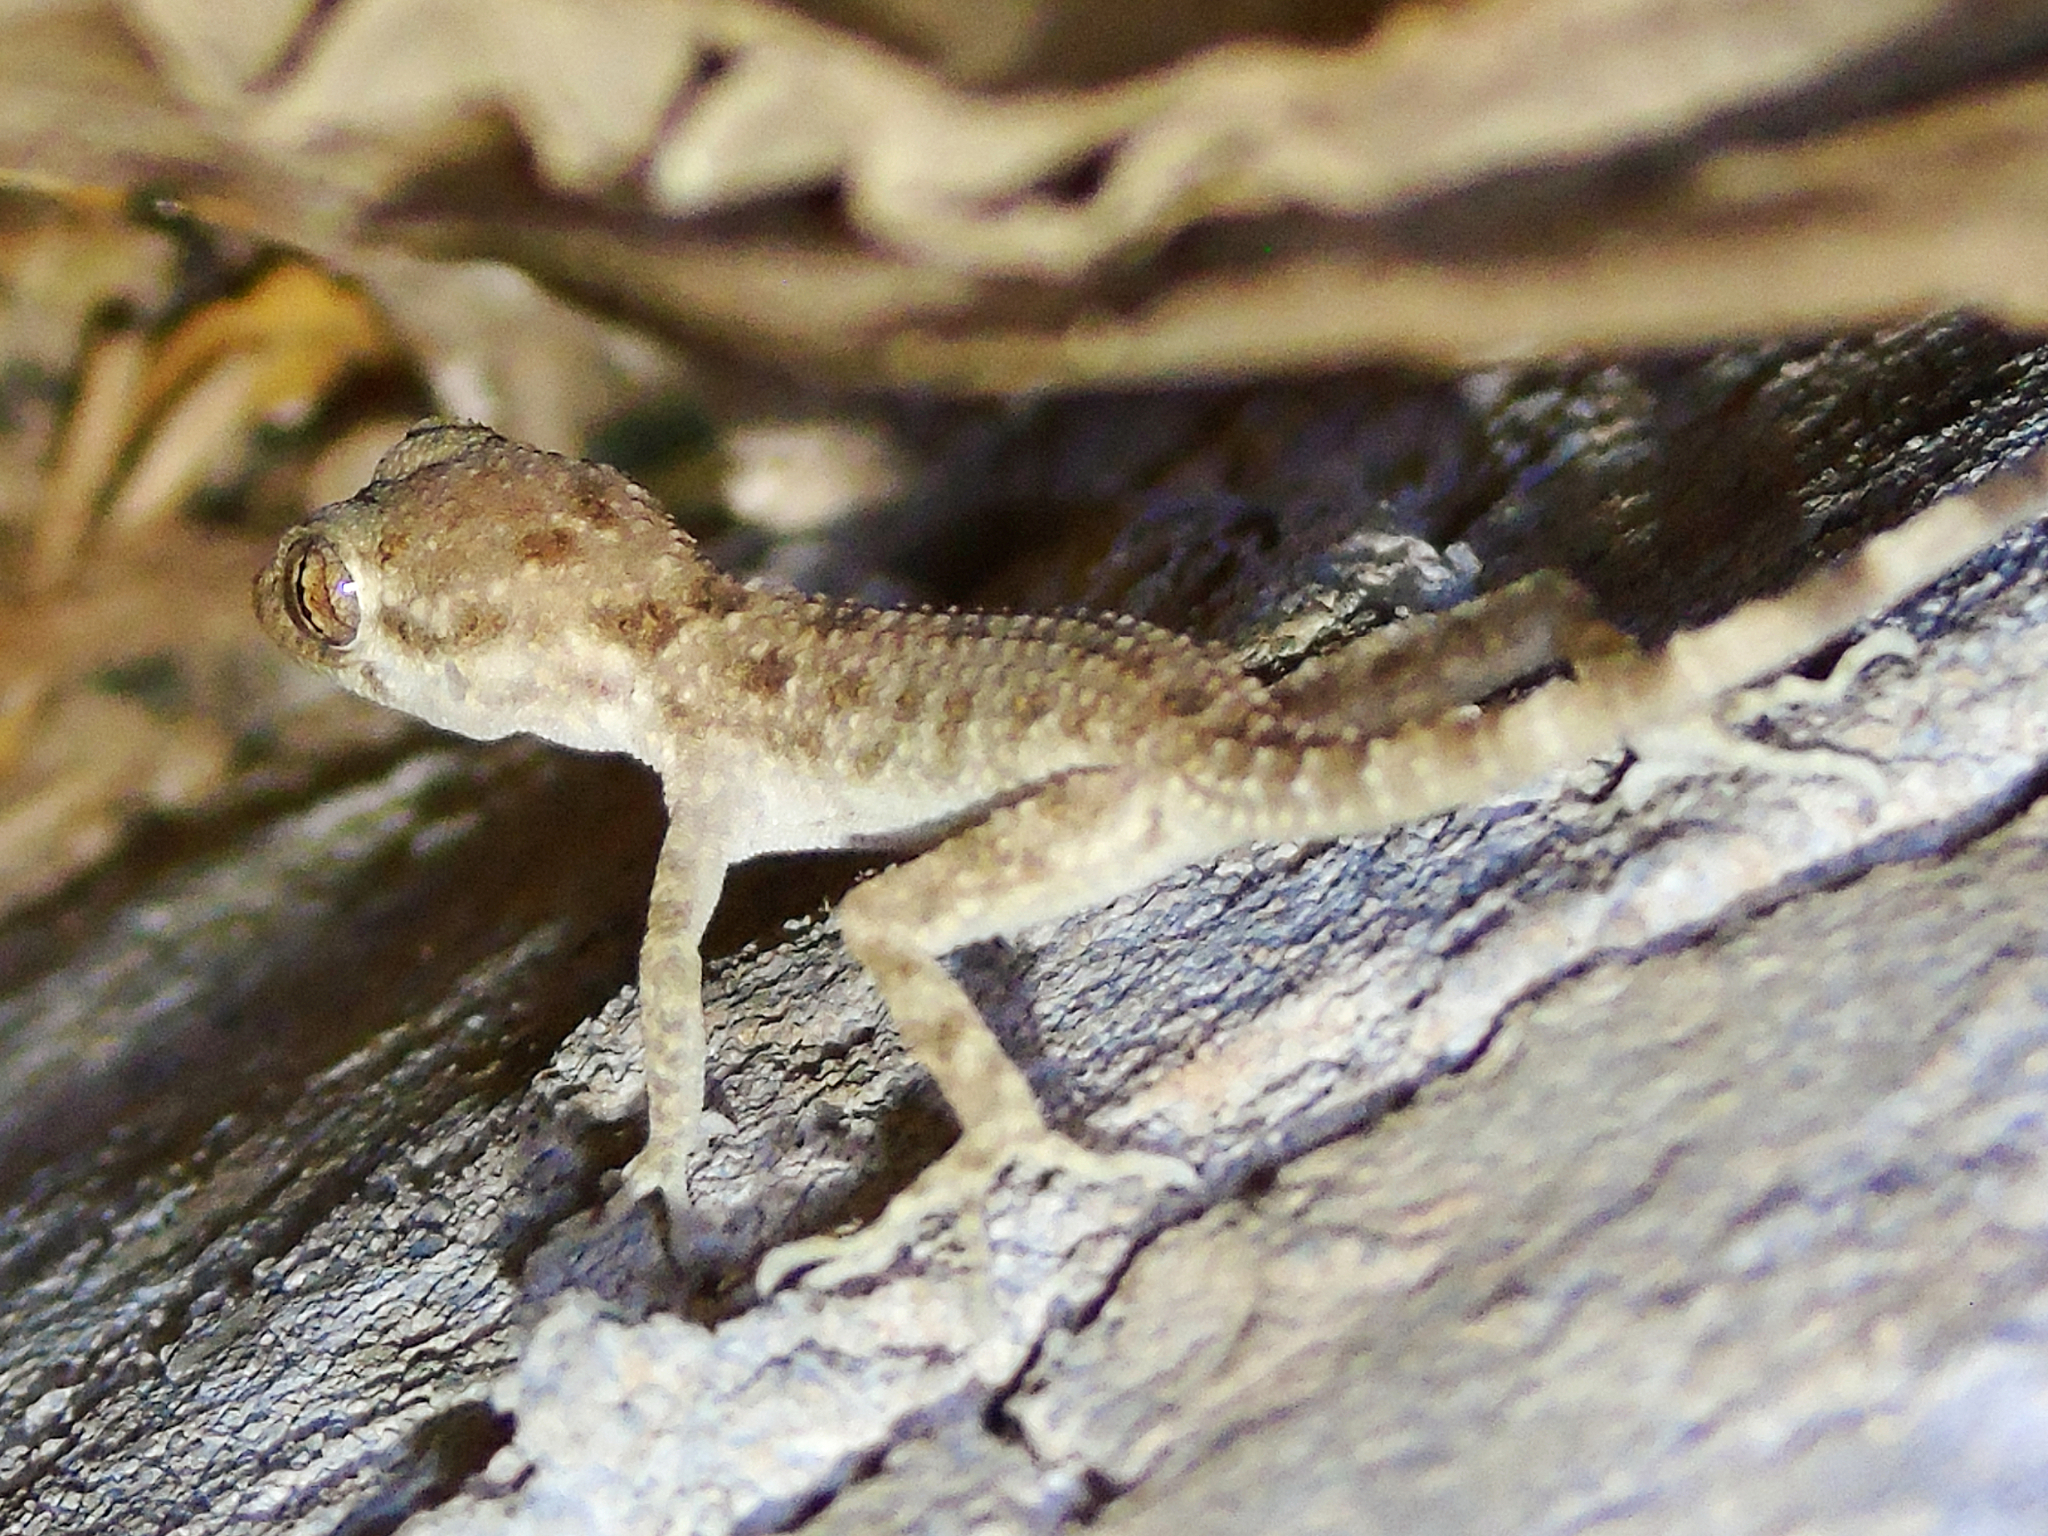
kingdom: Animalia
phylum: Chordata
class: Squamata
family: Gekkonidae
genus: Cyrtopodion
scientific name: Cyrtopodion scabrum
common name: Rough-tailed gecko
